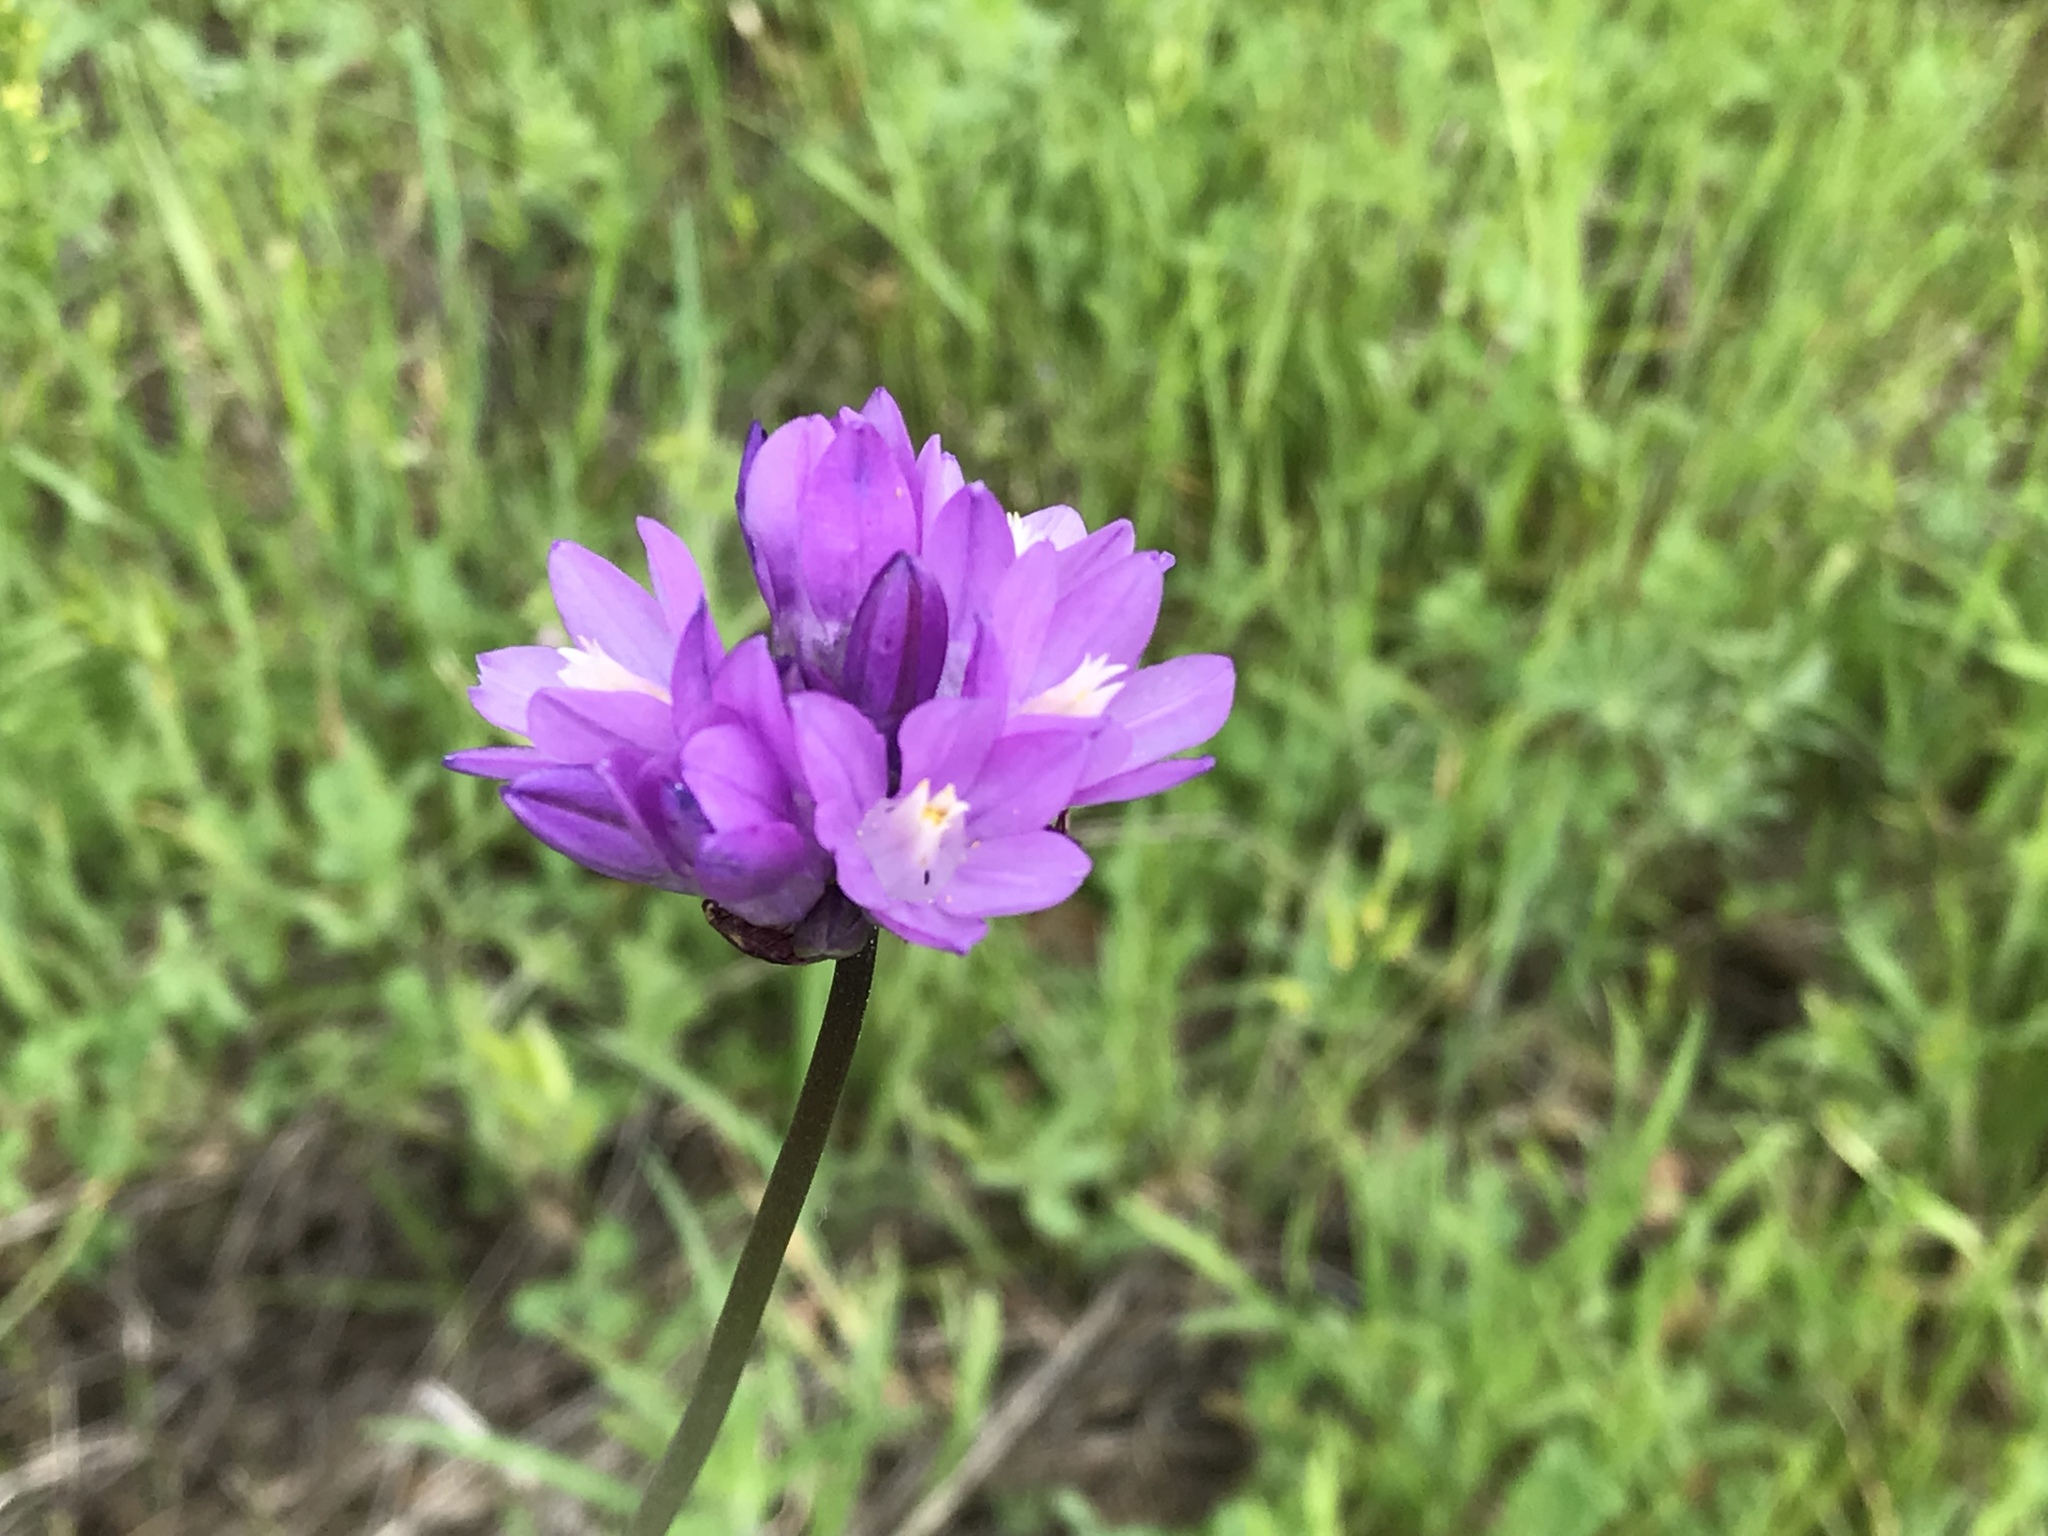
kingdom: Plantae
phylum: Tracheophyta
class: Liliopsida
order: Asparagales
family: Asparagaceae
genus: Dipterostemon
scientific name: Dipterostemon capitatus
